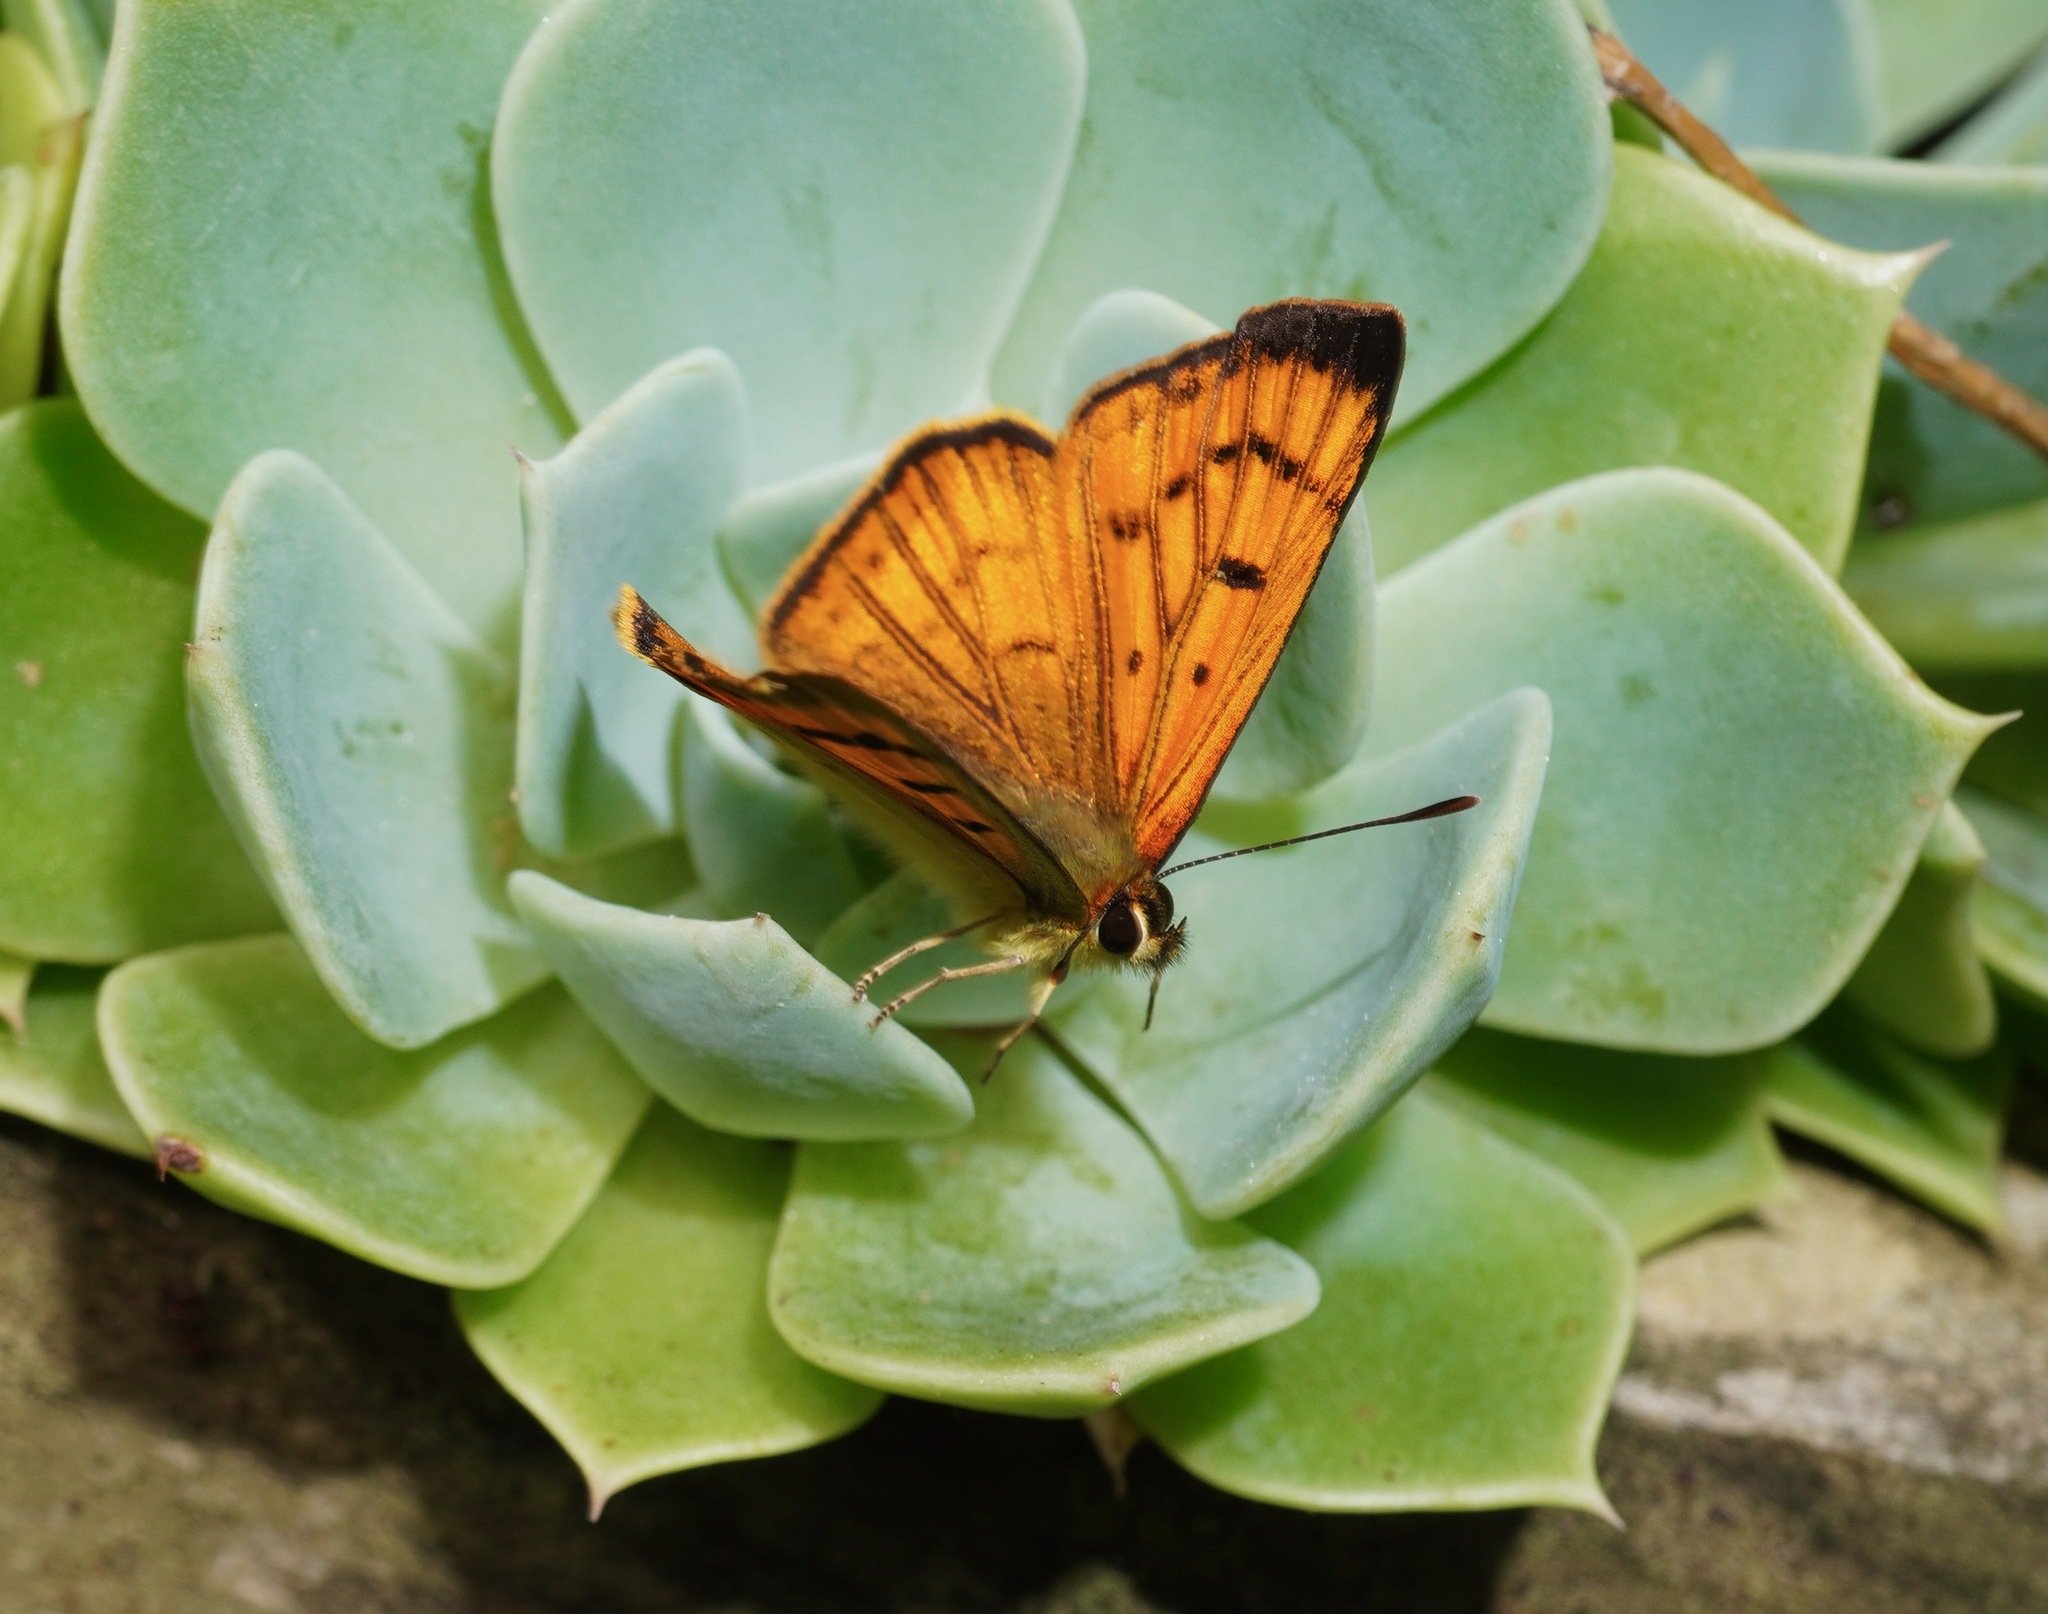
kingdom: Animalia
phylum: Arthropoda
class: Insecta
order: Lepidoptera
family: Lycaenidae
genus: Lycaena
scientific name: Lycaena salustius
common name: North island coastal copper
